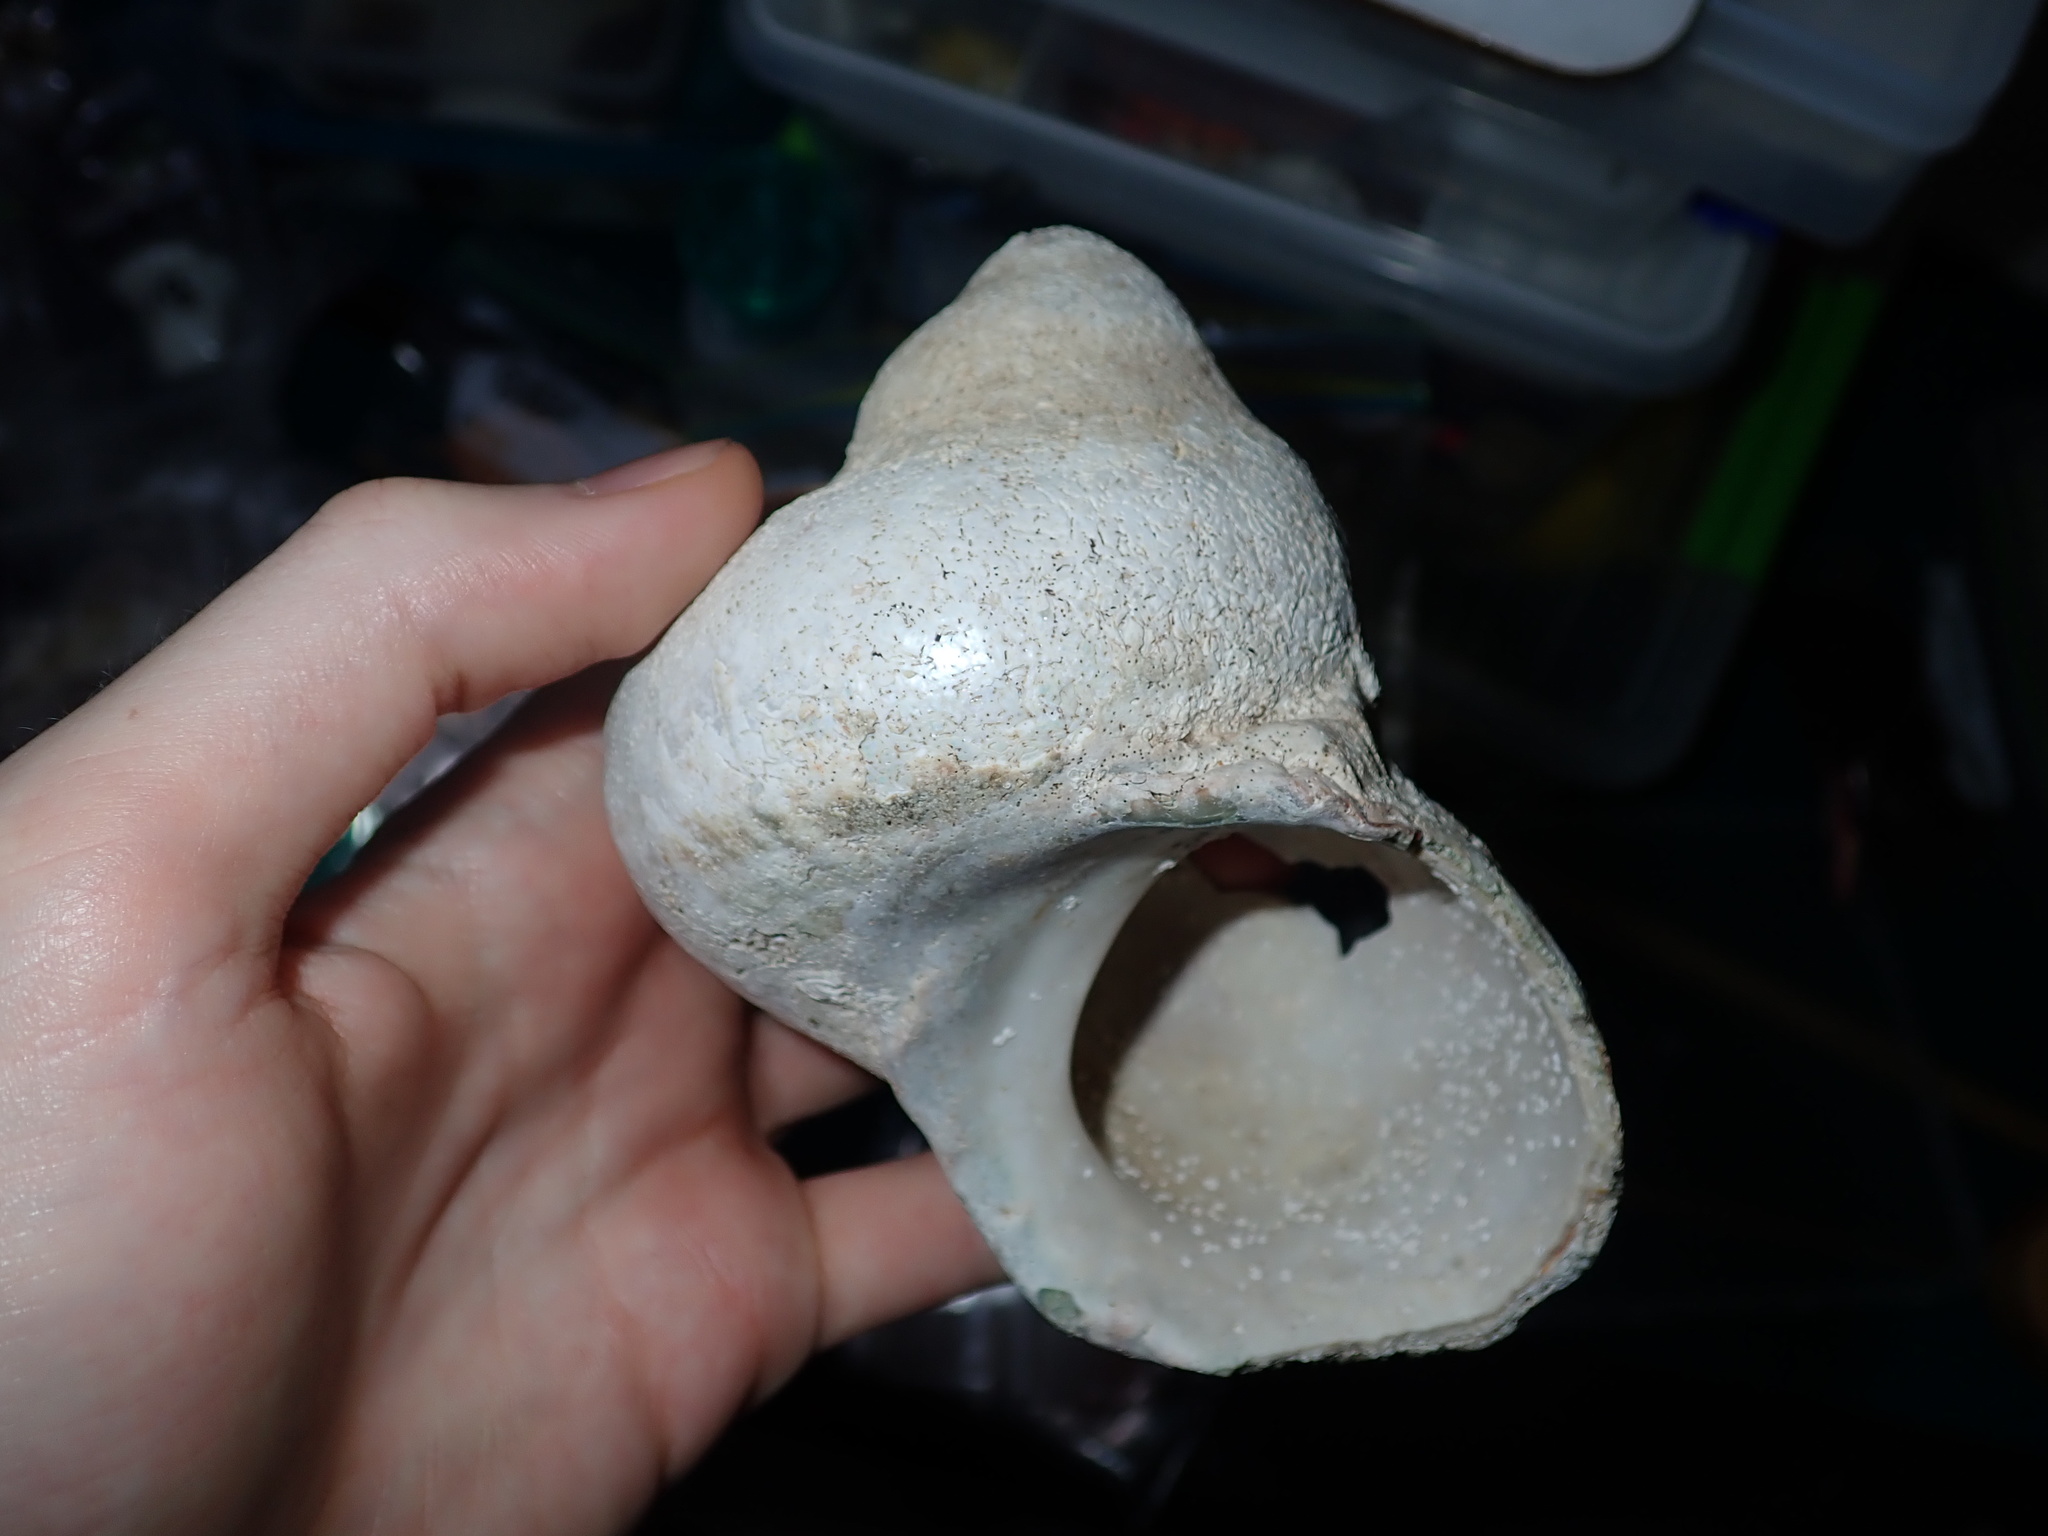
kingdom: Animalia
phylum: Mollusca
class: Gastropoda
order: Trochida
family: Turbinidae
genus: Turbo
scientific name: Turbo militaris
